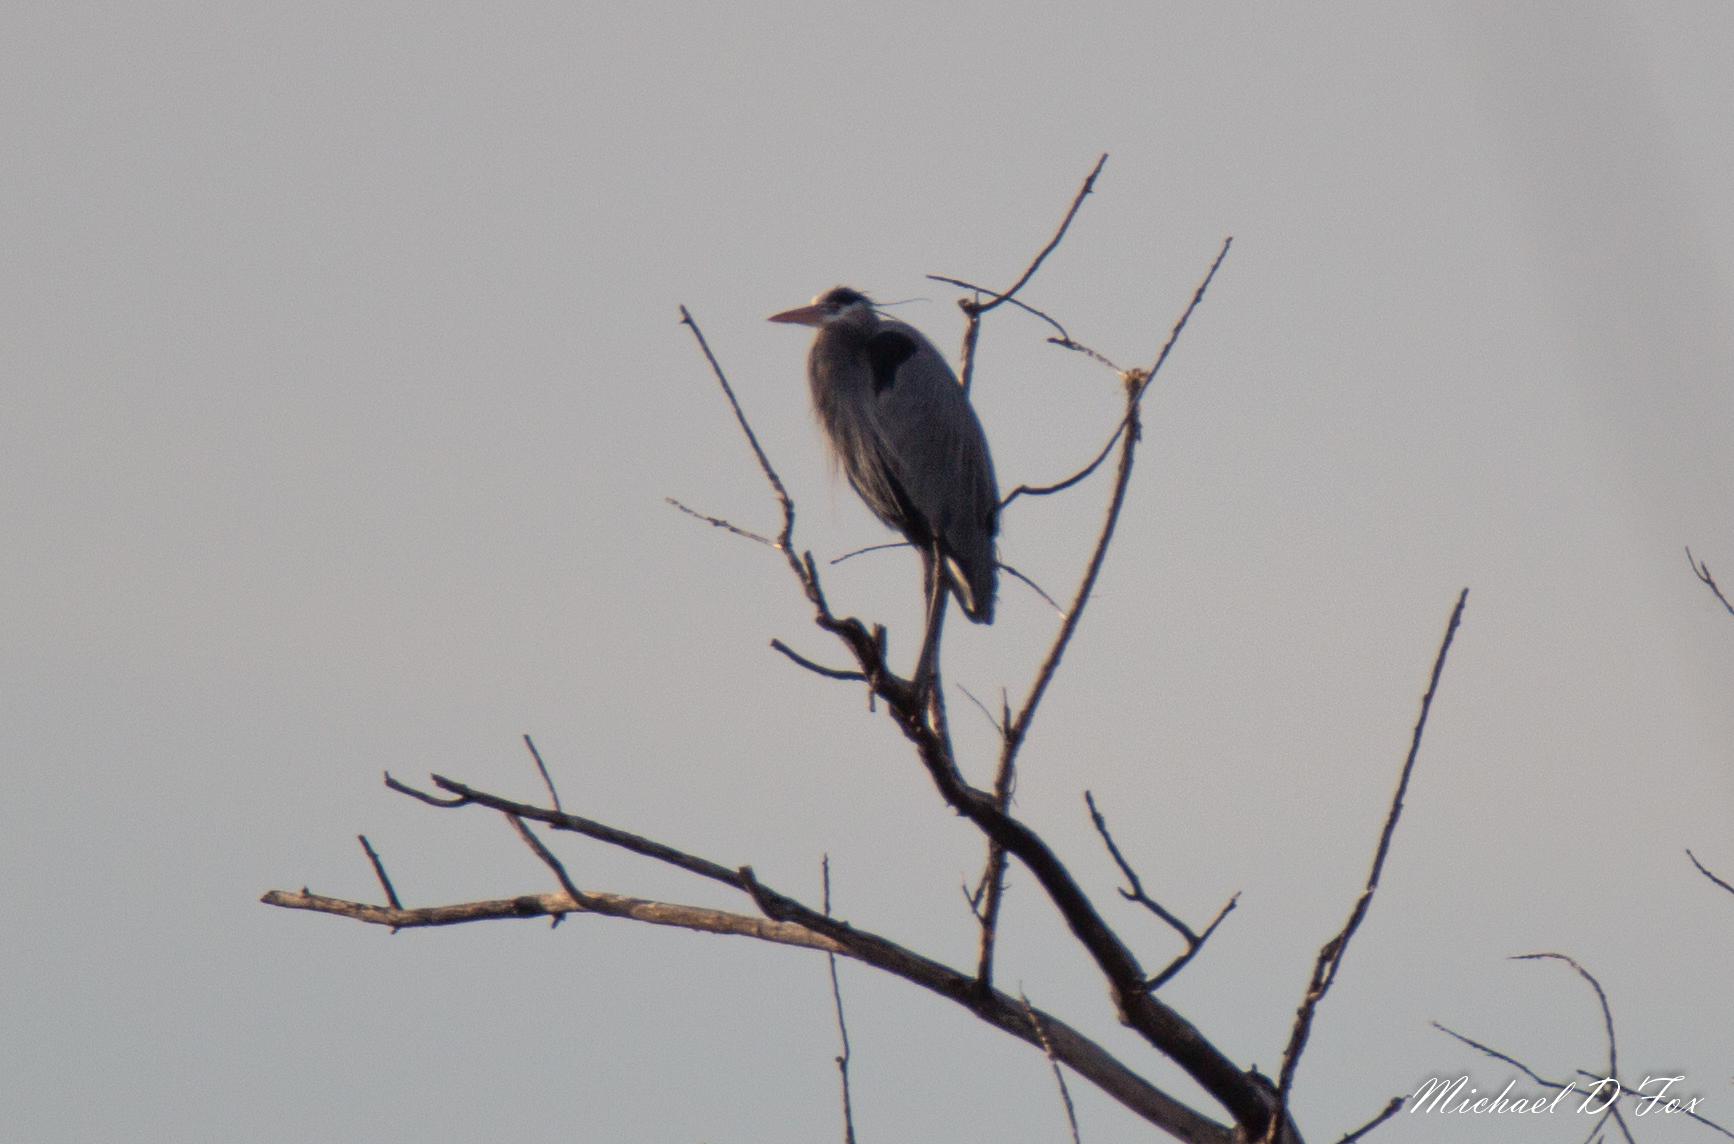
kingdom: Animalia
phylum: Chordata
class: Aves
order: Pelecaniformes
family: Ardeidae
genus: Ardea
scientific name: Ardea herodias
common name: Great blue heron
